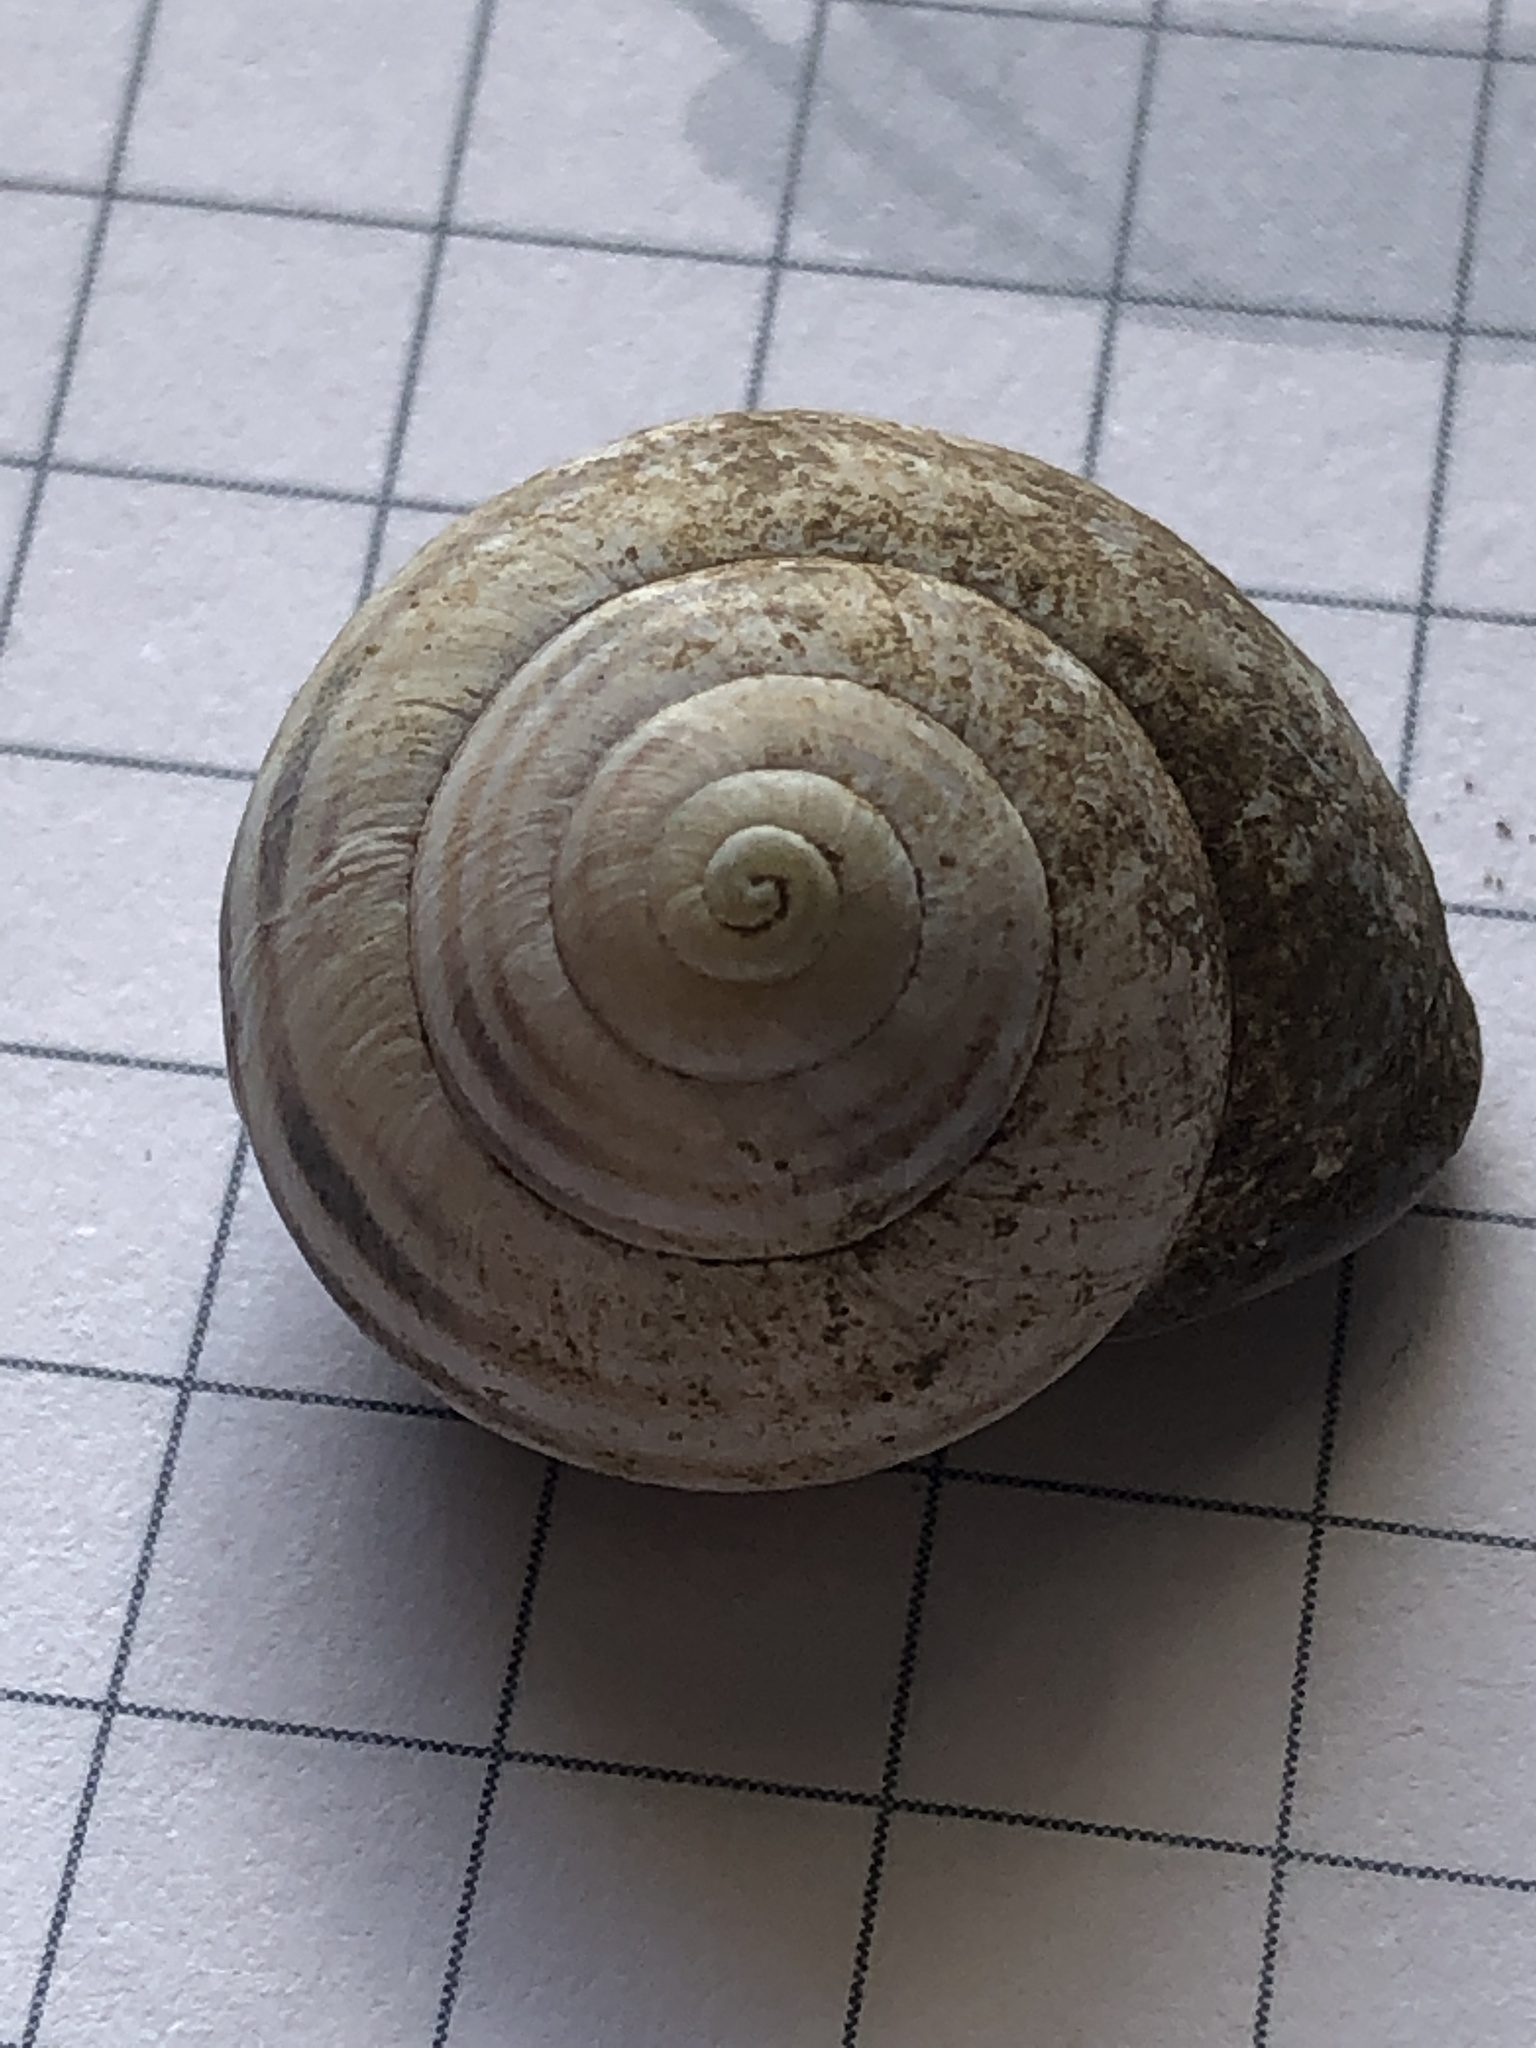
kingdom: Animalia
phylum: Mollusca
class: Gastropoda
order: Stylommatophora
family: Helicidae
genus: Cepaea
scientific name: Cepaea nemoralis
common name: Grovesnail
